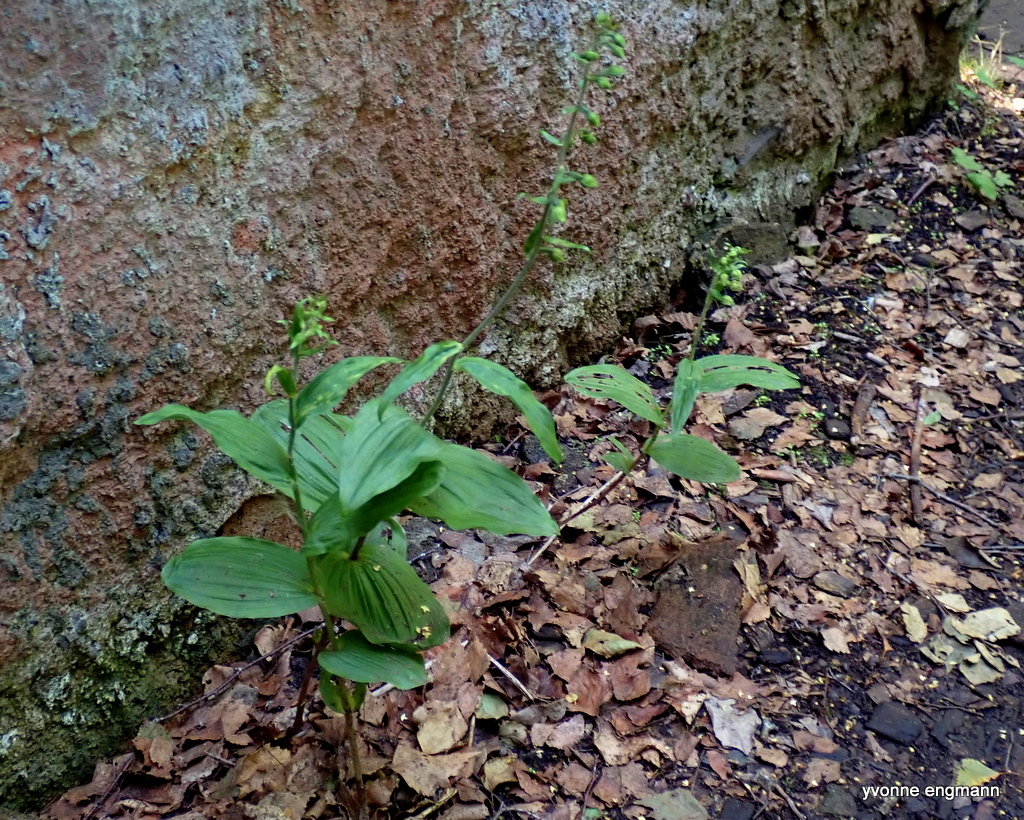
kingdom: Plantae
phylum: Tracheophyta
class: Liliopsida
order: Asparagales
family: Orchidaceae
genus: Epipactis
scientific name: Epipactis helleborine
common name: Broad-leaved helleborine
